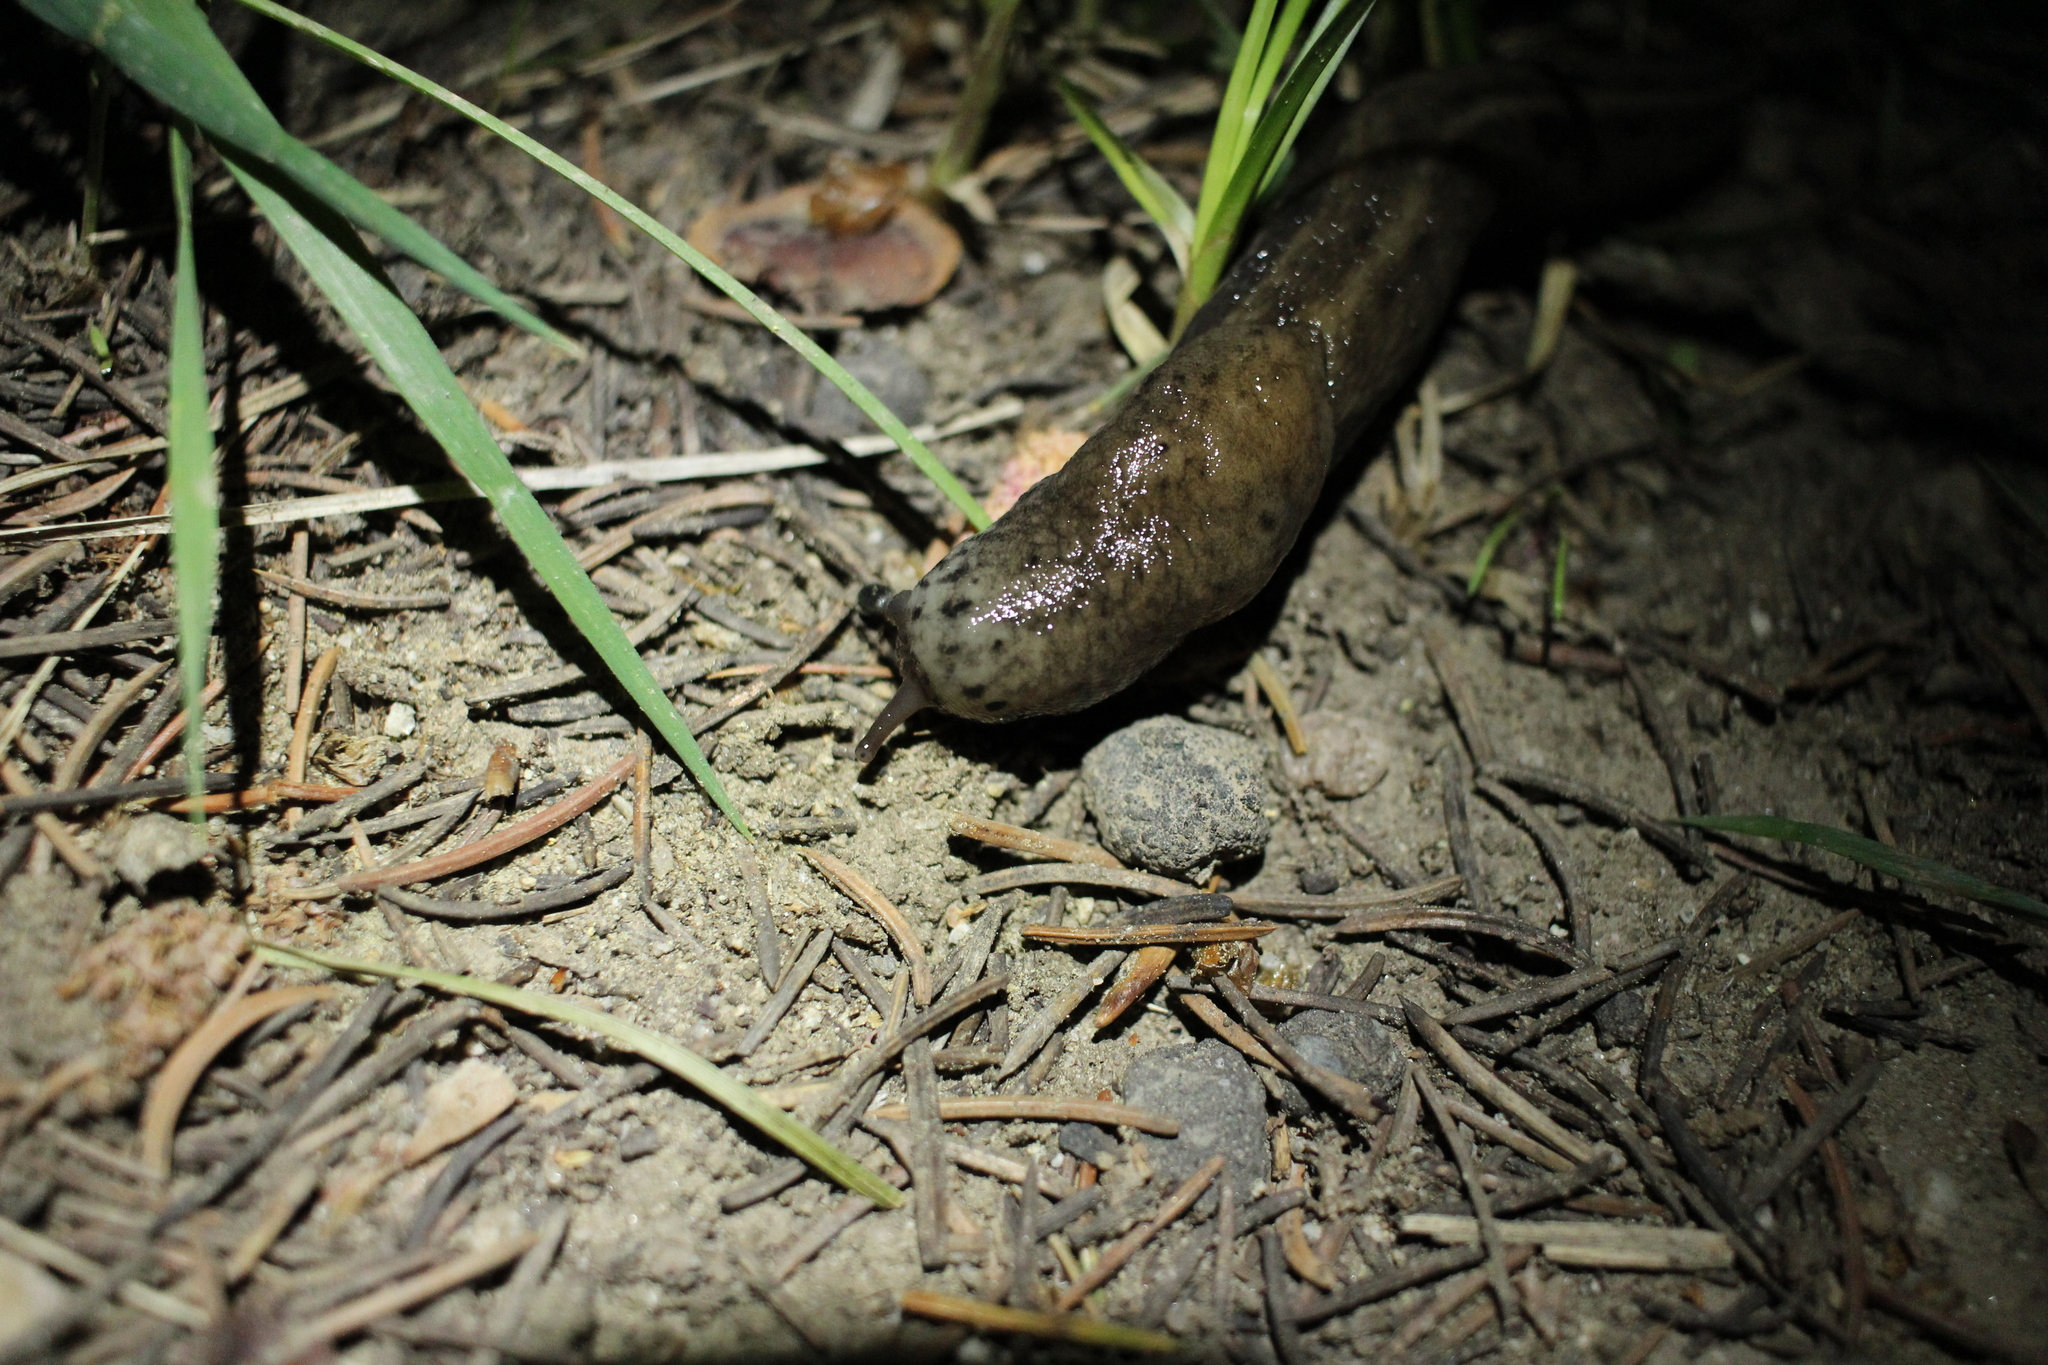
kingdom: Animalia
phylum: Mollusca
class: Gastropoda
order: Stylommatophora
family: Limacidae
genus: Limax
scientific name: Limax maximus
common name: Great grey slug
